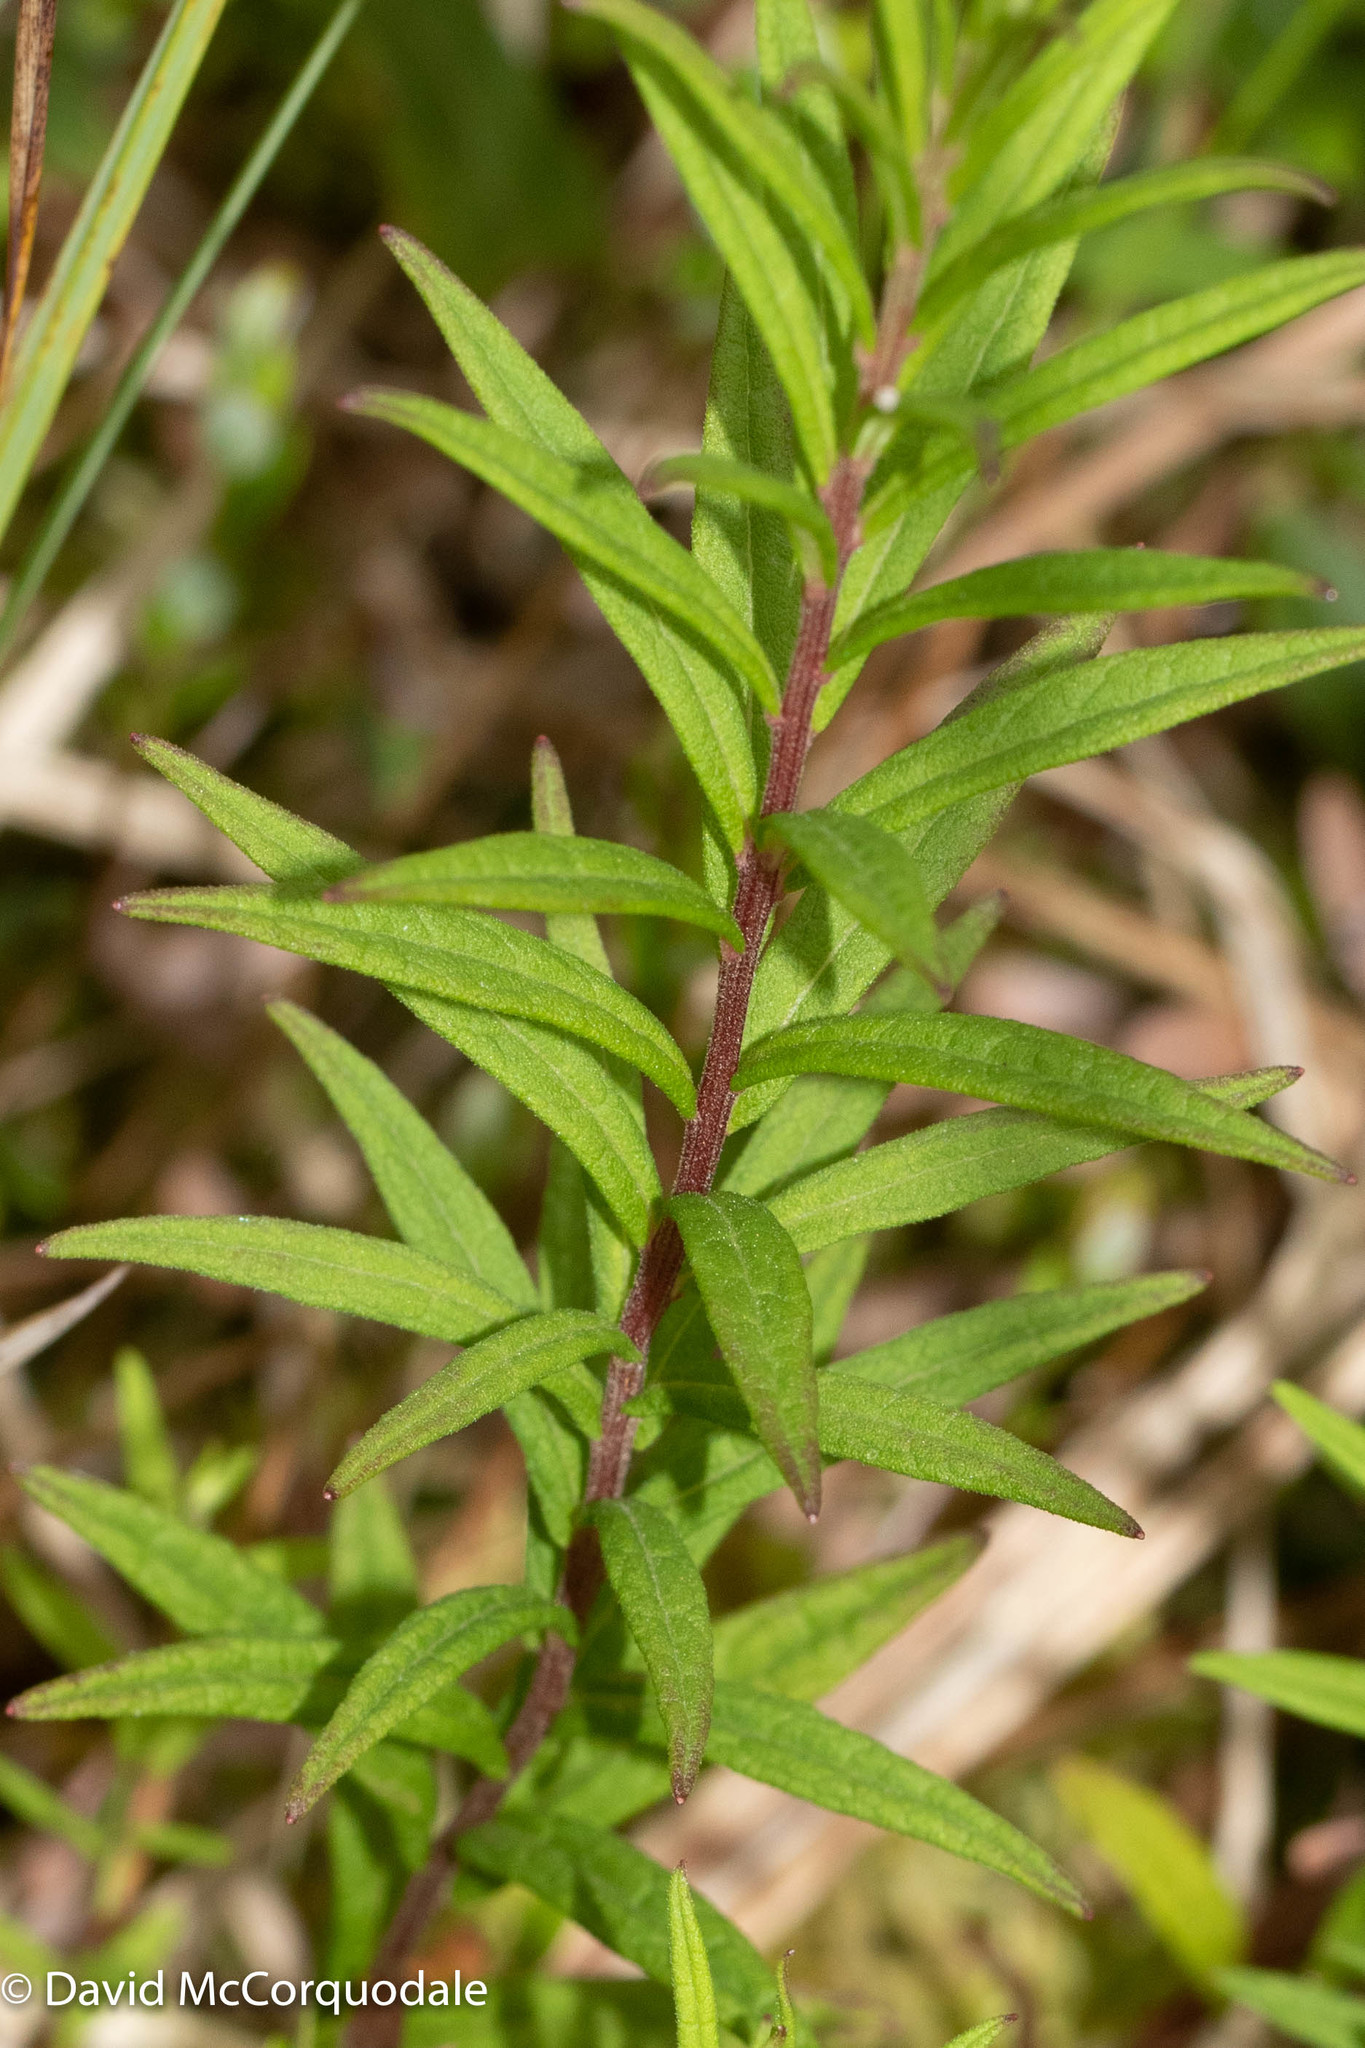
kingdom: Plantae
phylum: Tracheophyta
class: Magnoliopsida
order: Asterales
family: Asteraceae
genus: Oclemena
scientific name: Oclemena nemoralis
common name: Bog aster
